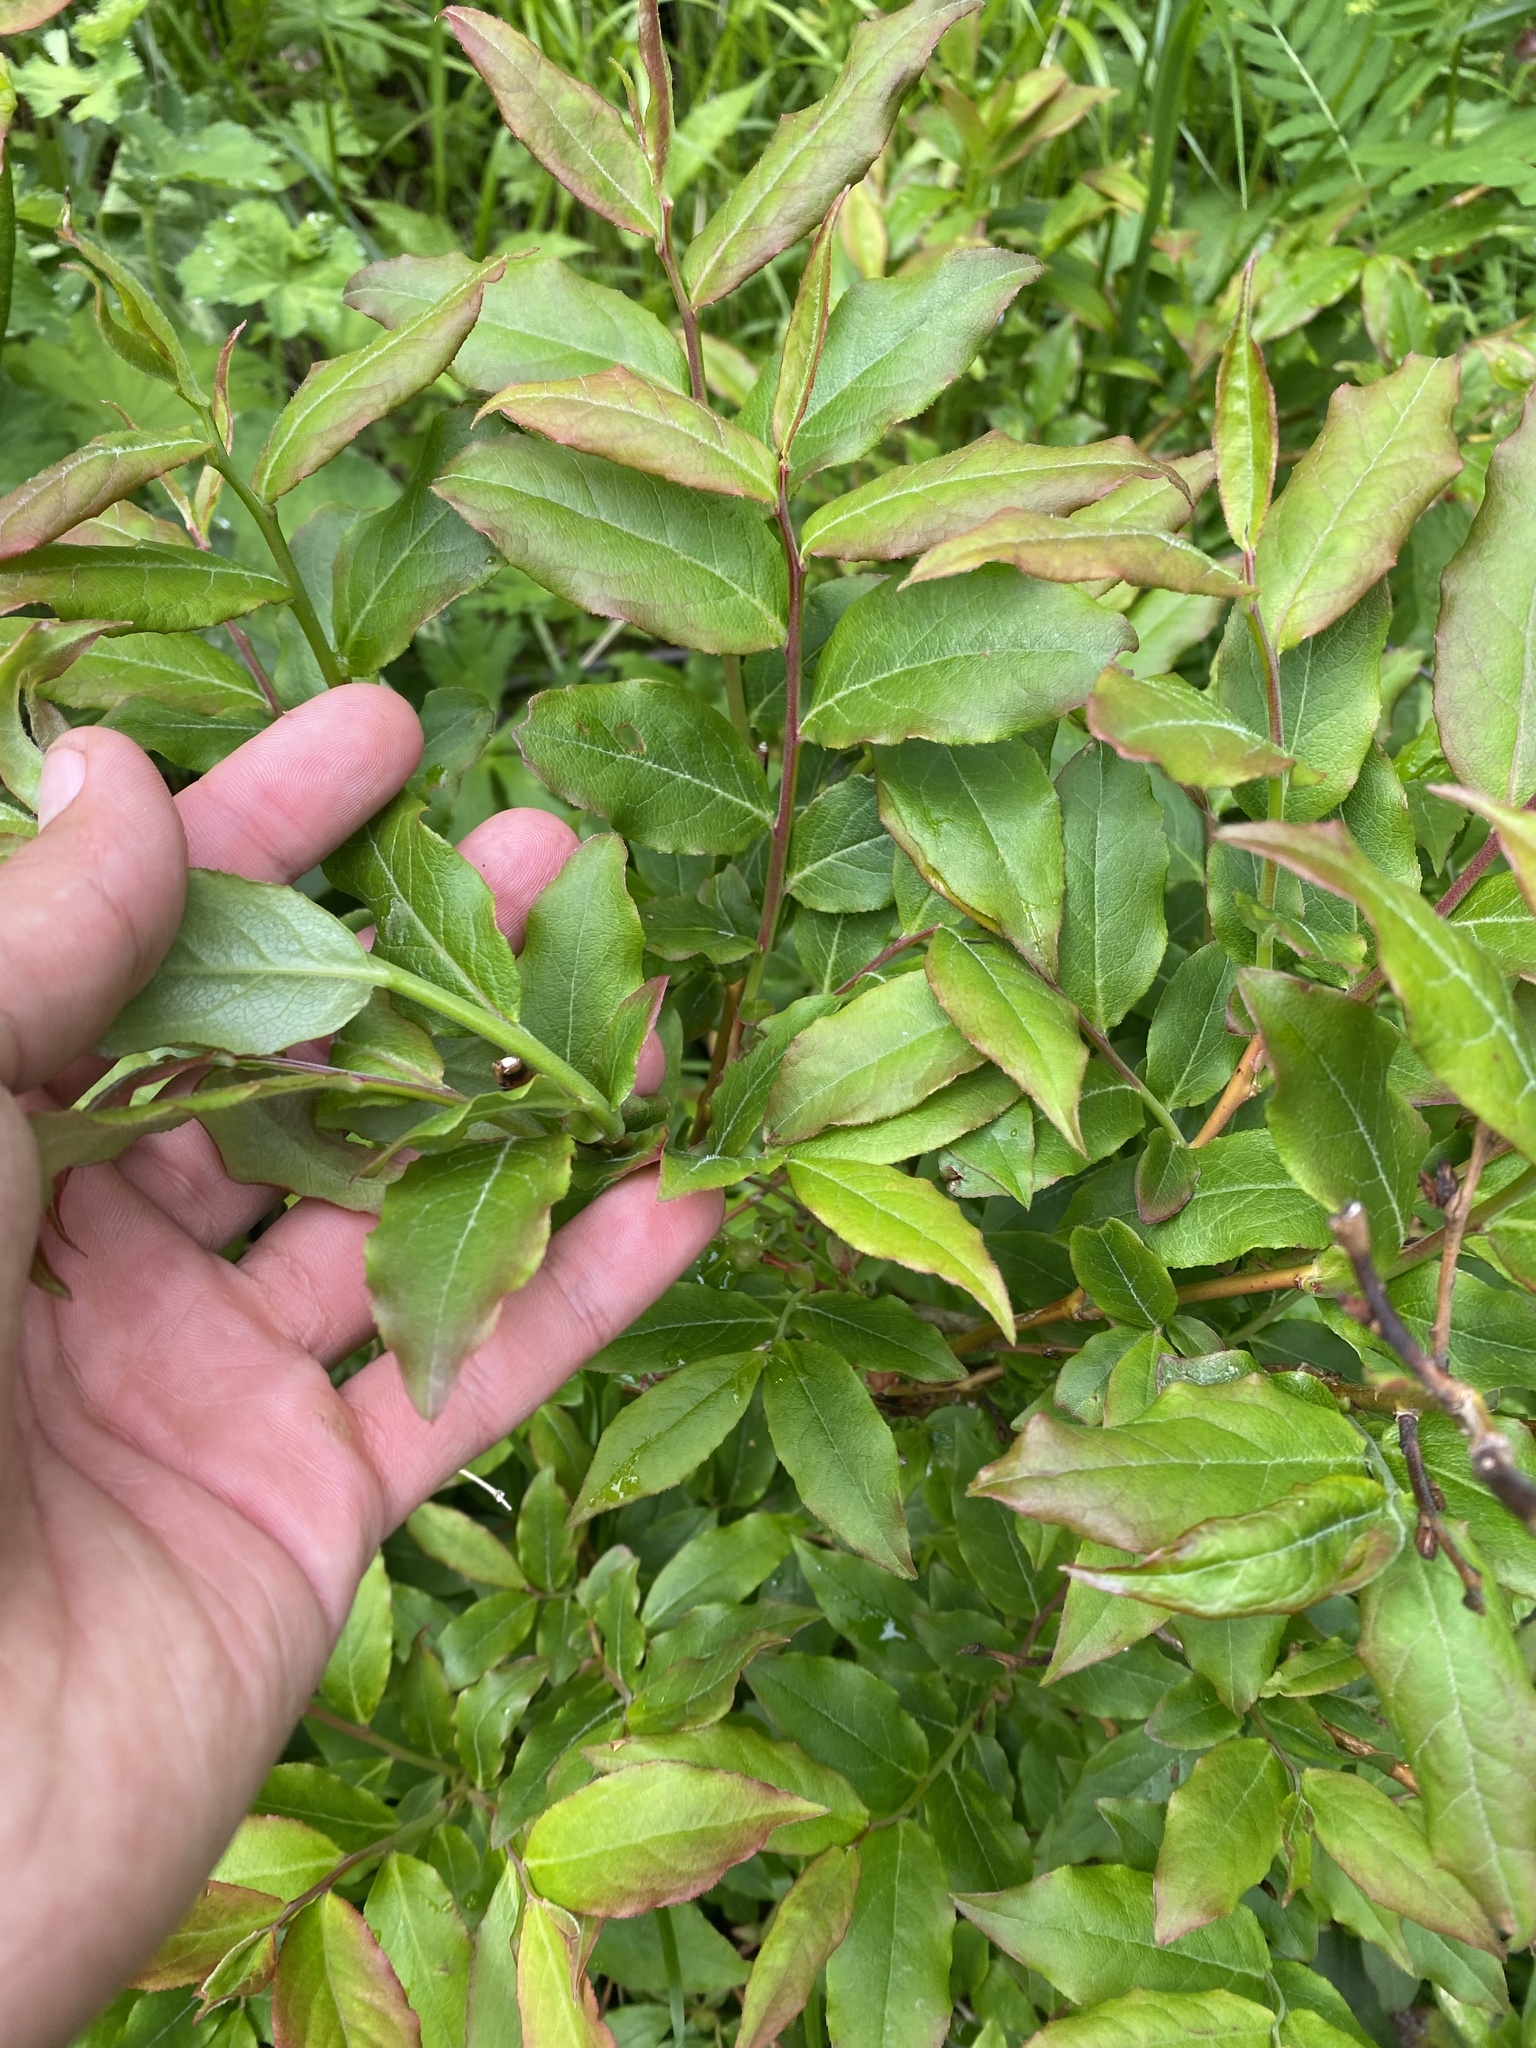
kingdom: Plantae
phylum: Tracheophyta
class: Magnoliopsida
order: Ericales
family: Ericaceae
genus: Vaccinium
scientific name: Vaccinium arctostaphylos
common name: Caucasian whortleberry
